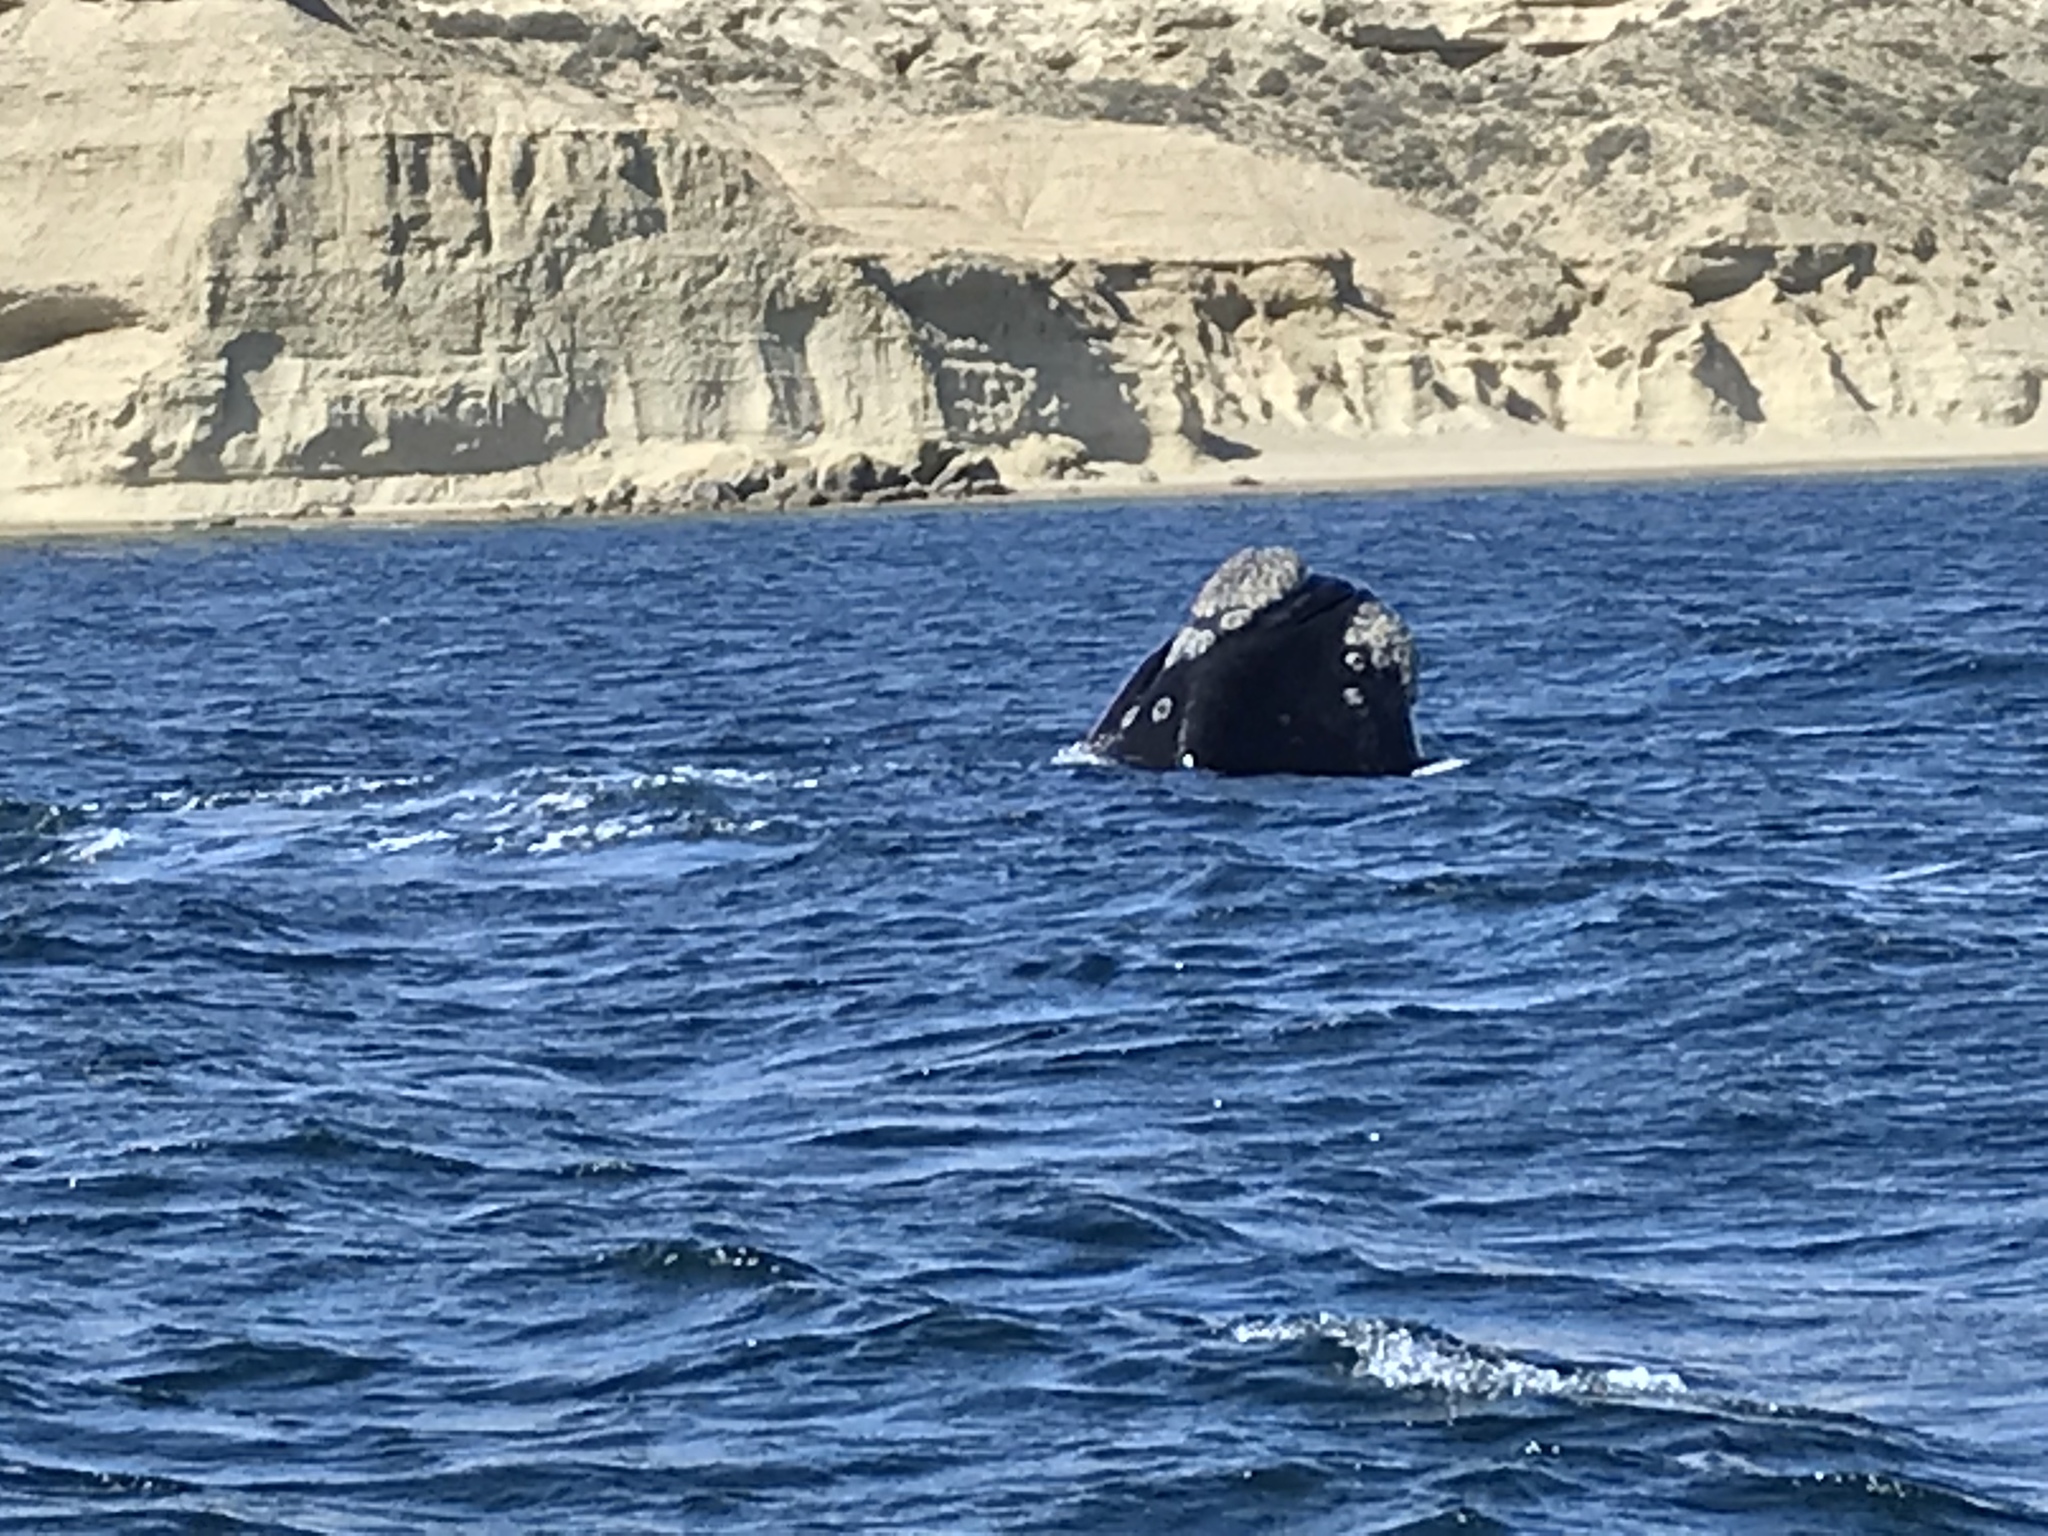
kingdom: Animalia
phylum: Chordata
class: Mammalia
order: Cetacea
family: Balaenidae
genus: Eubalaena
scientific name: Eubalaena australis
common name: Southern right whale
